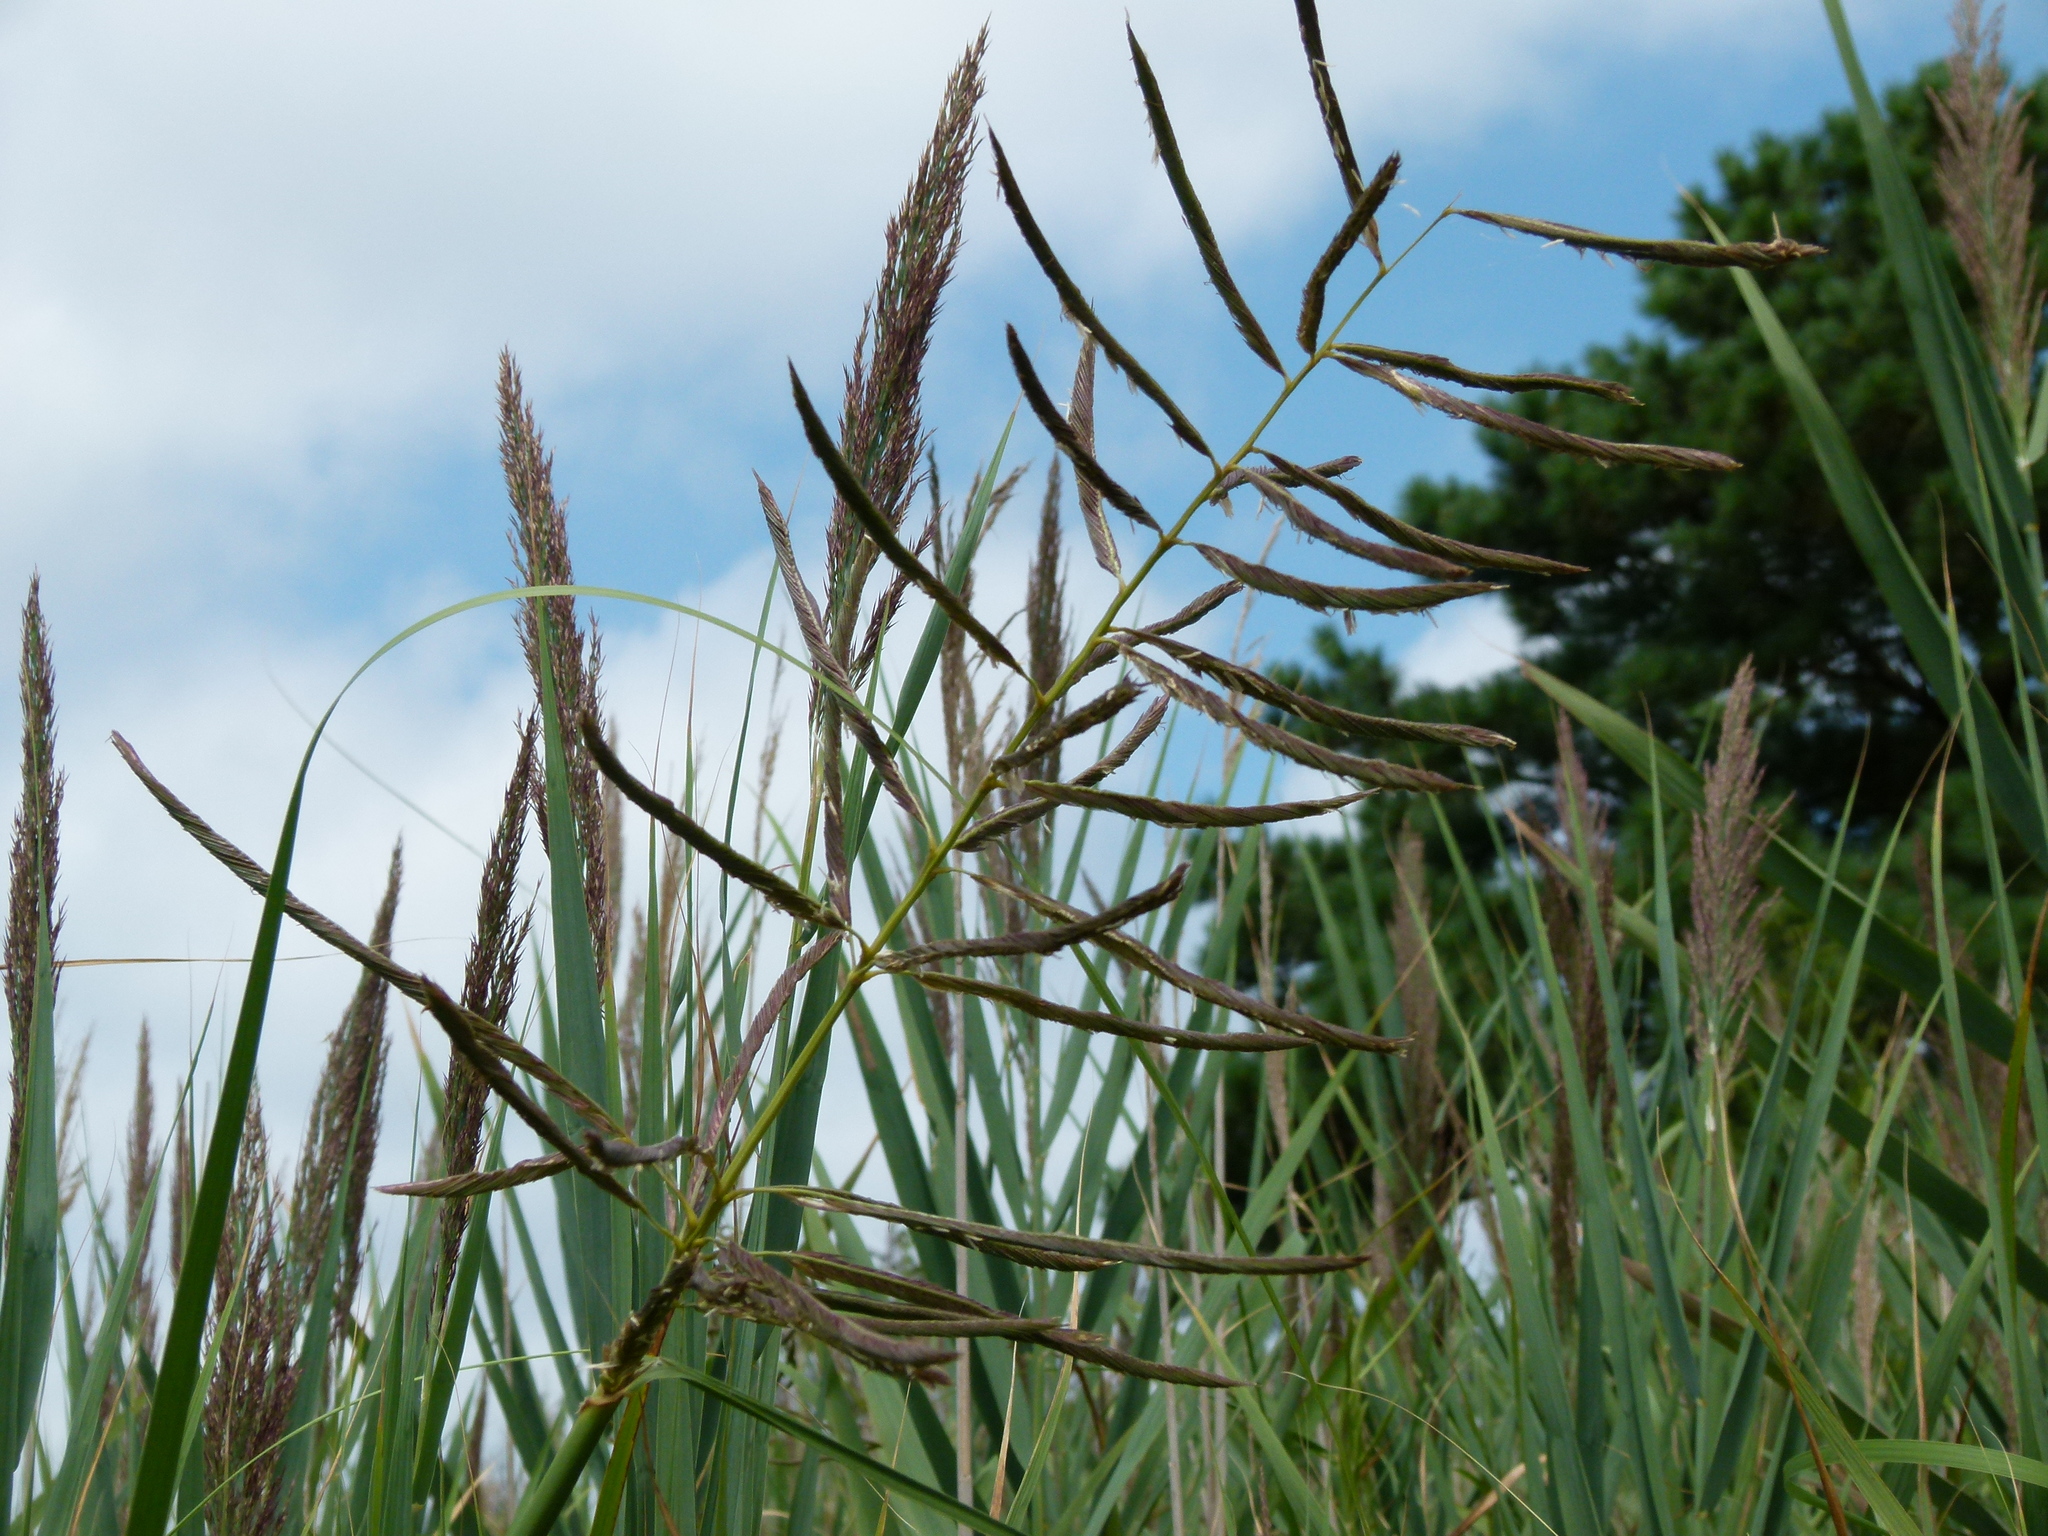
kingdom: Plantae
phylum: Tracheophyta
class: Liliopsida
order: Poales
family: Poaceae
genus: Sporobolus
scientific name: Sporobolus cynosuroides
